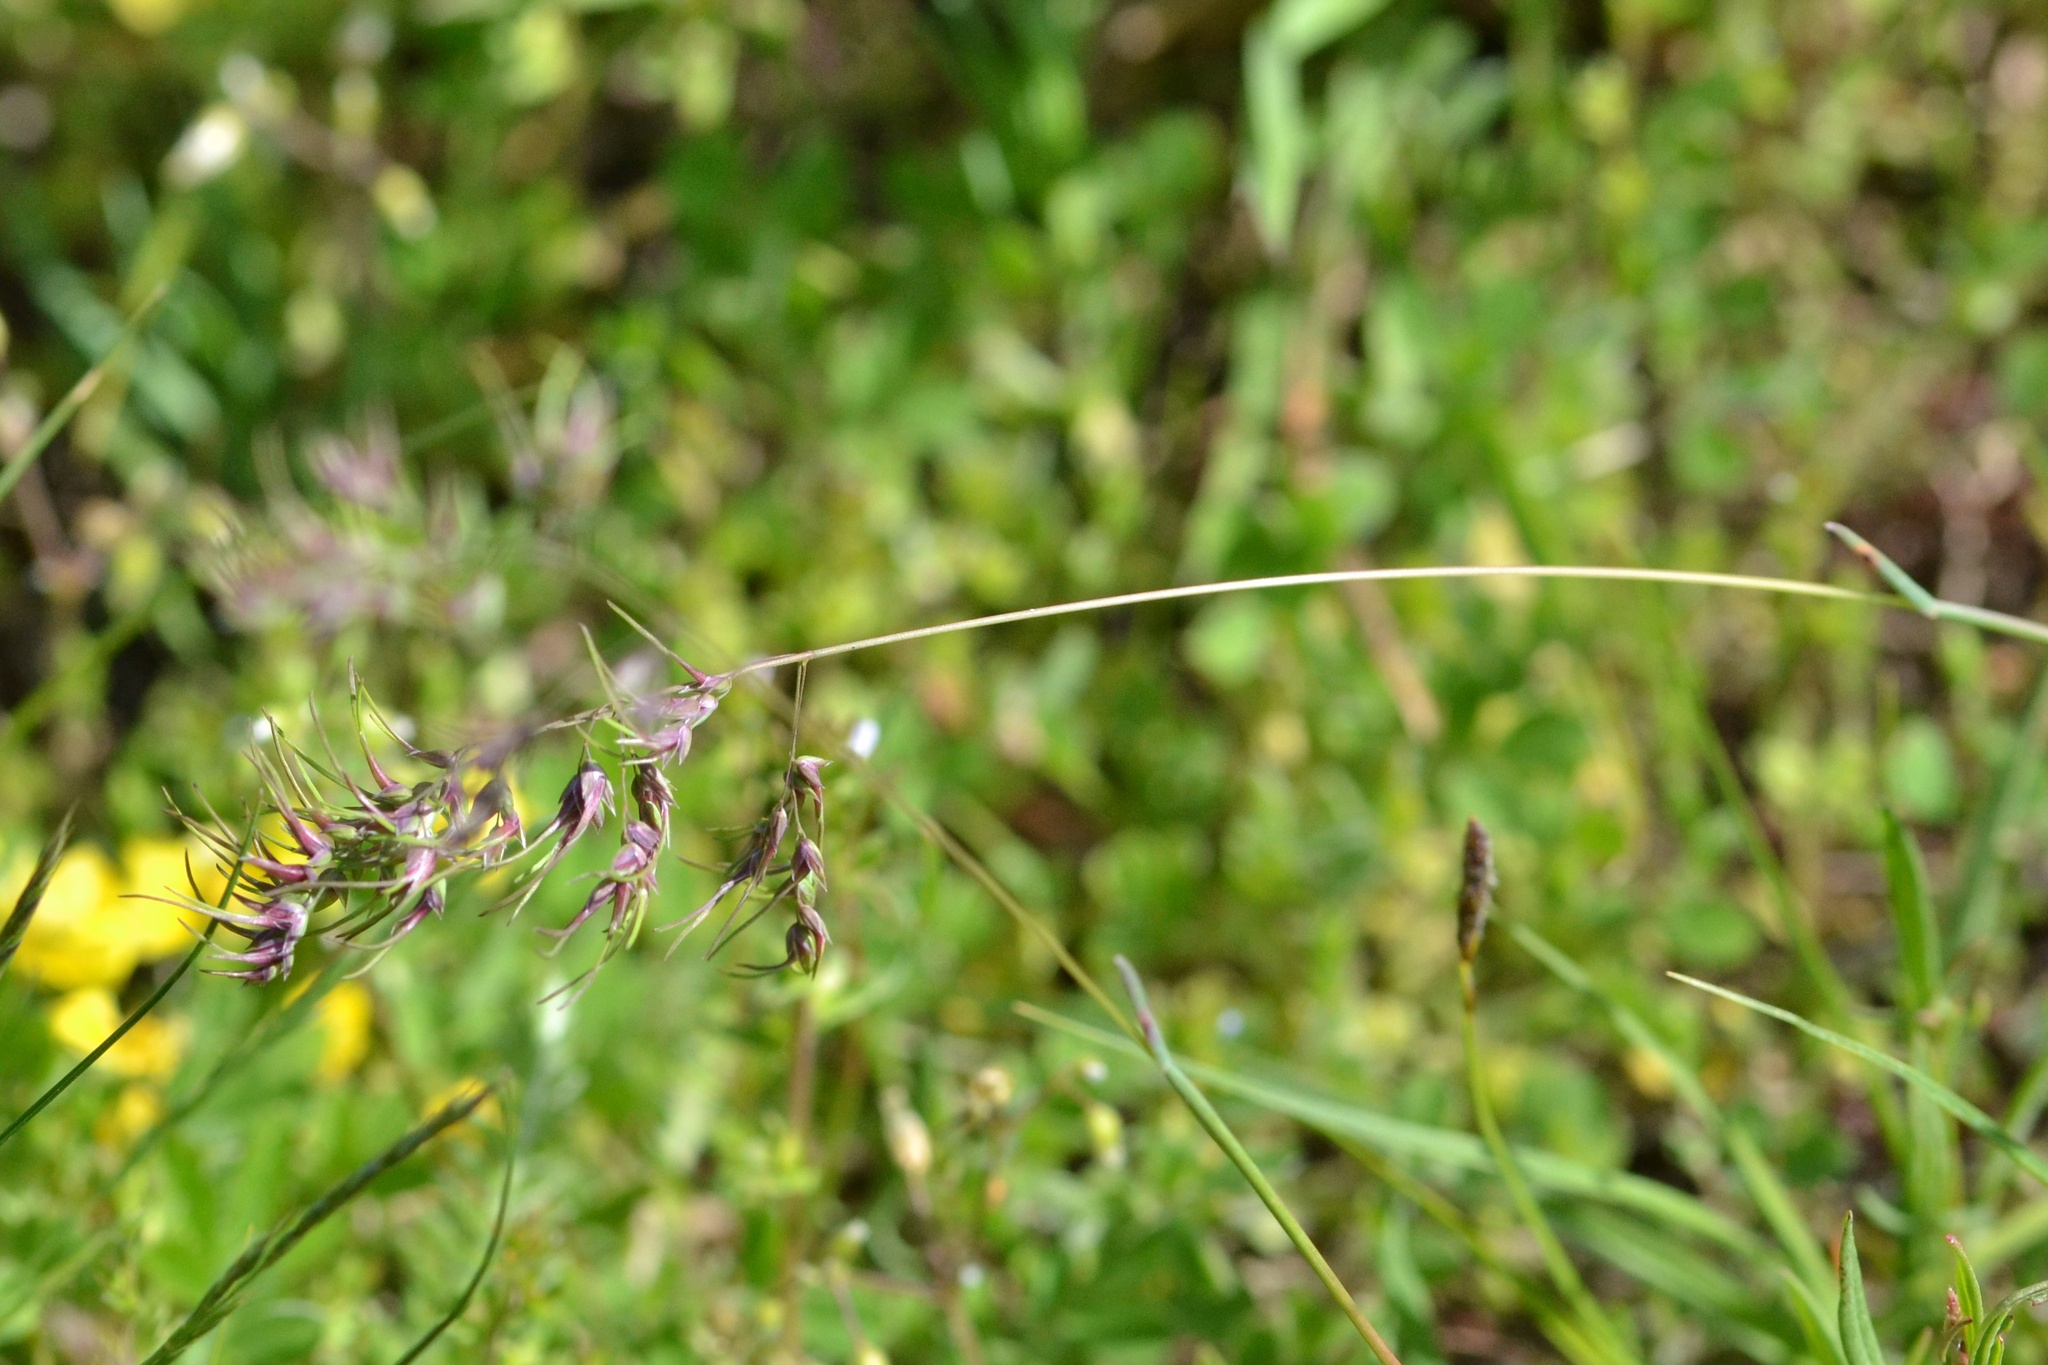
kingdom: Plantae
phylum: Tracheophyta
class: Liliopsida
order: Poales
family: Poaceae
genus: Poa
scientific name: Poa bulbosa
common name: Bulbous bluegrass
